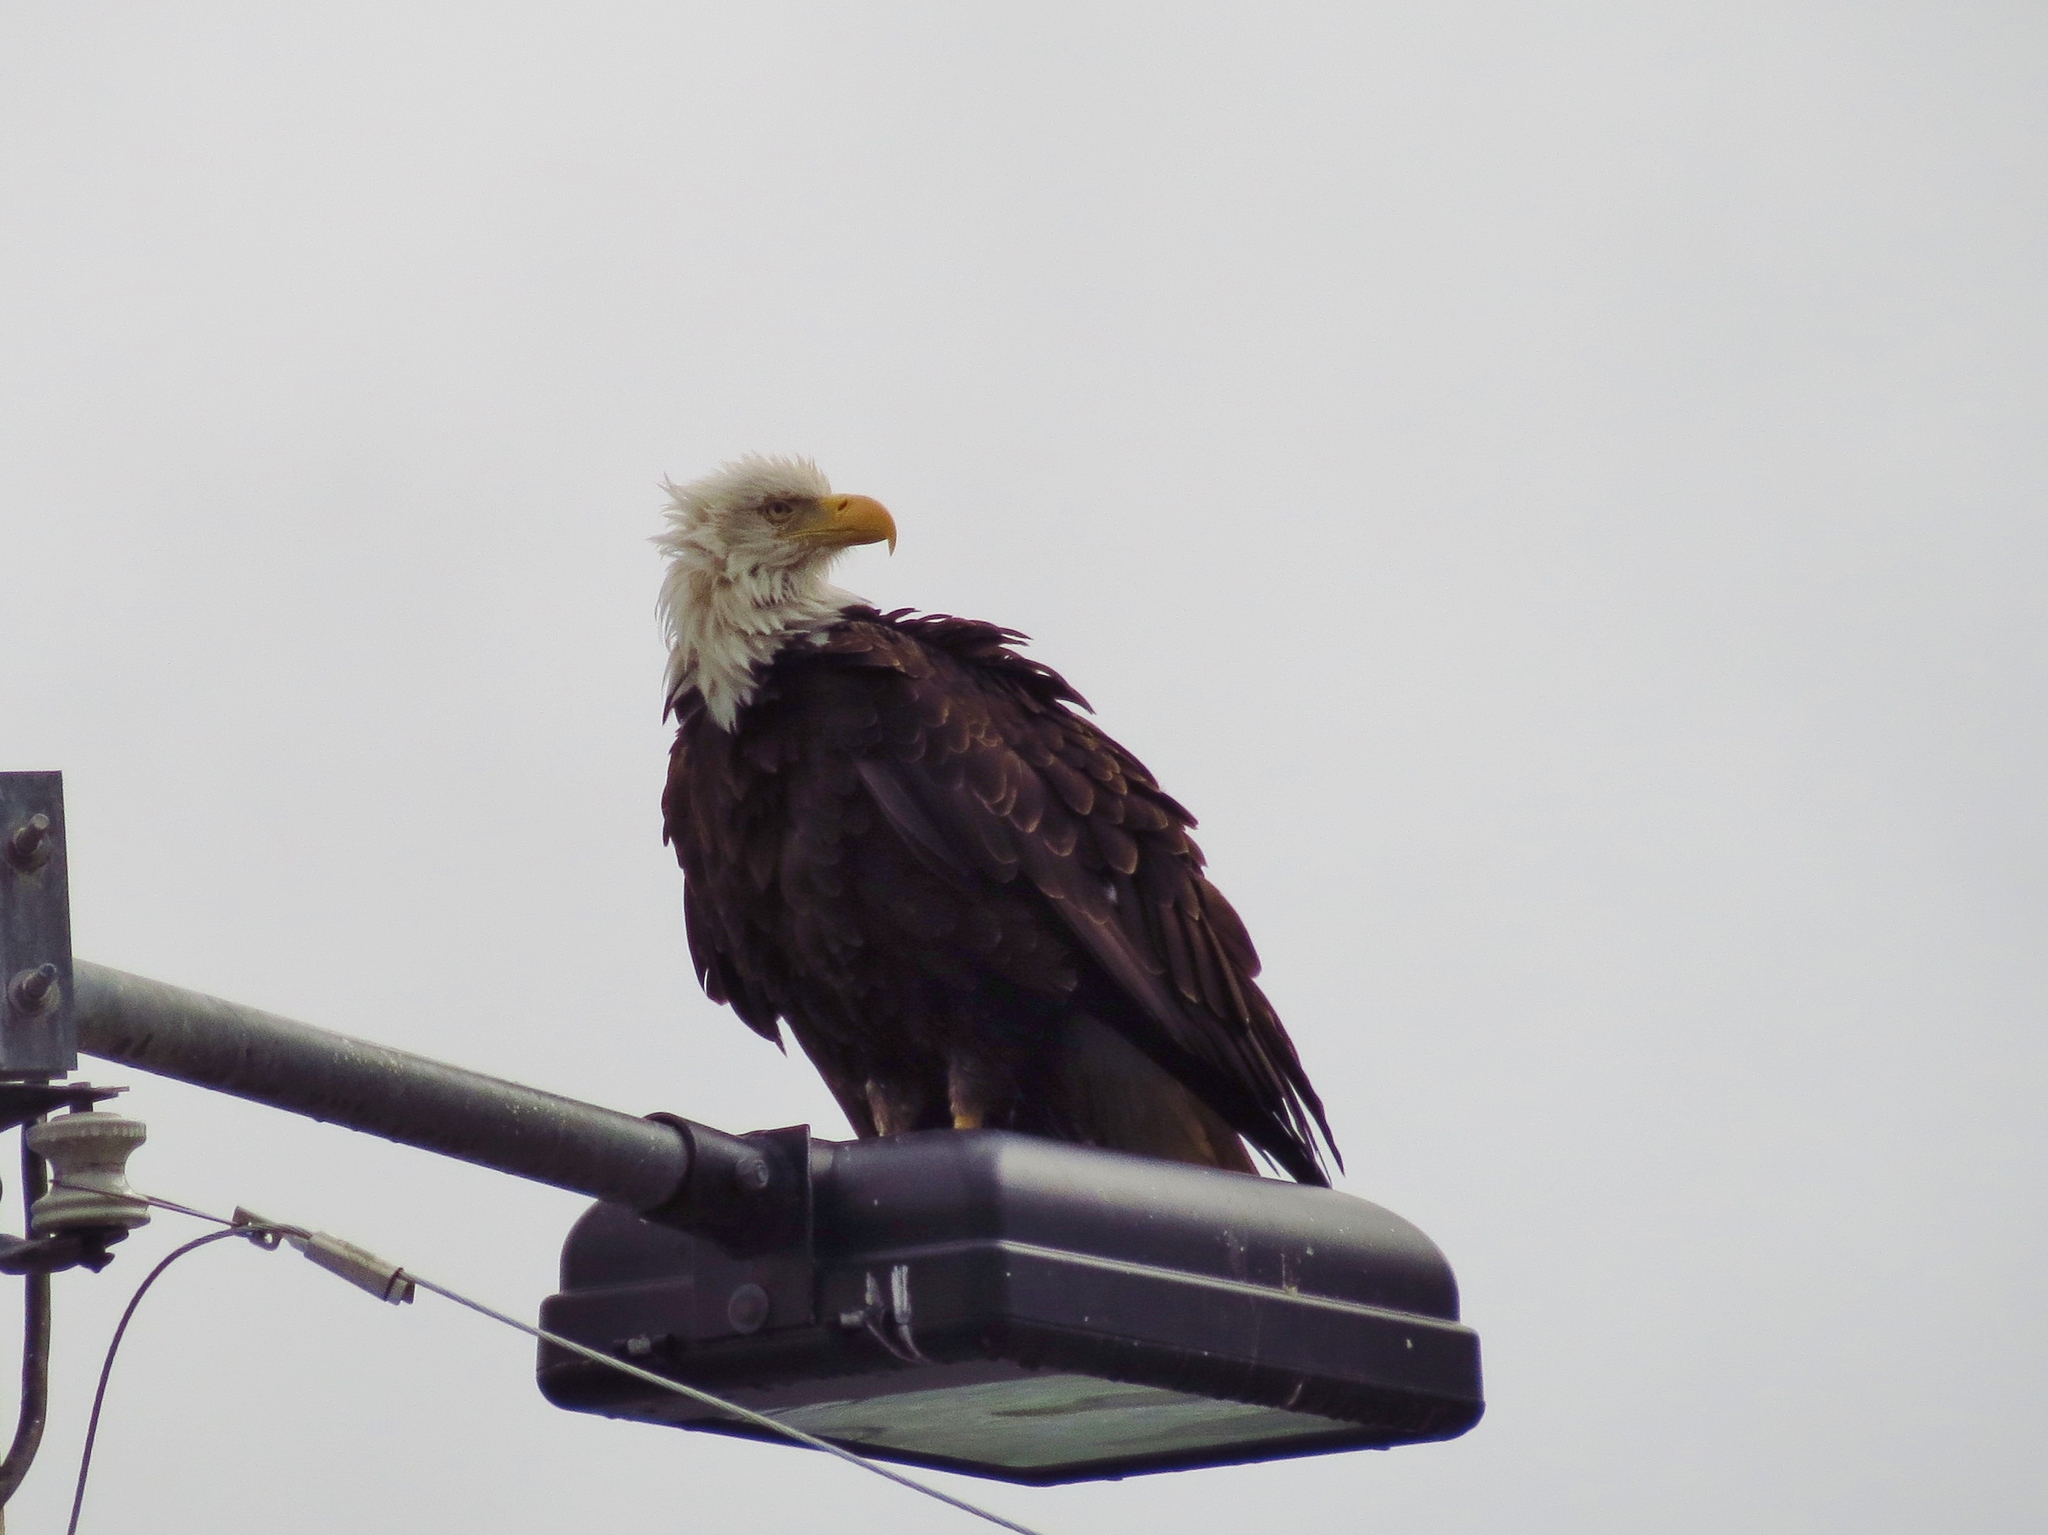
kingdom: Animalia
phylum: Chordata
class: Aves
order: Accipitriformes
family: Accipitridae
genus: Haliaeetus
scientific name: Haliaeetus leucocephalus
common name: Bald eagle
